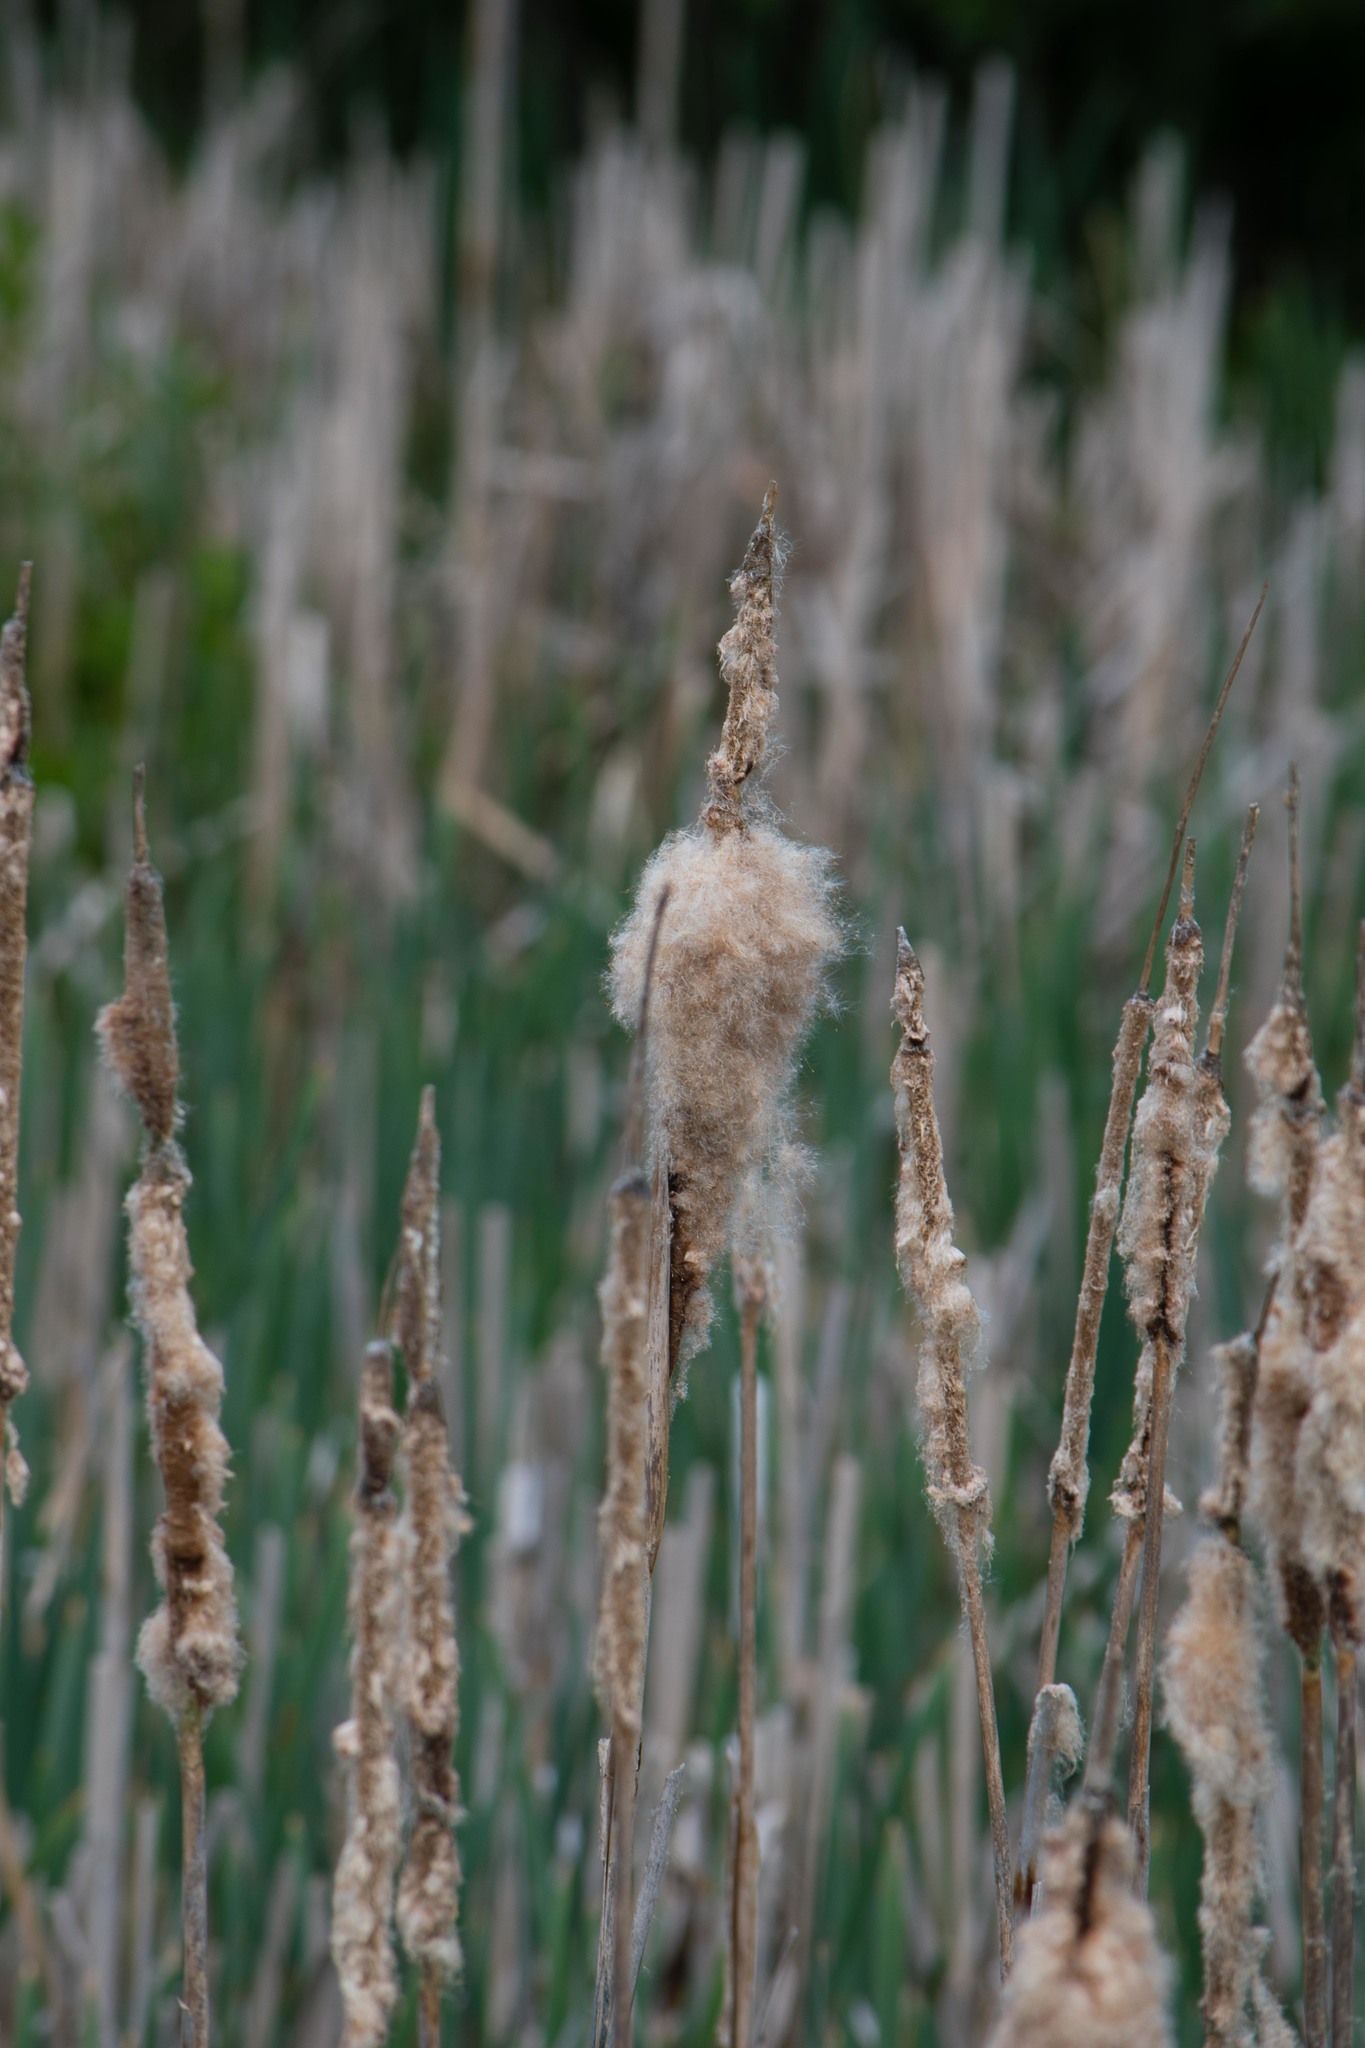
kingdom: Plantae
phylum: Tracheophyta
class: Liliopsida
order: Poales
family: Typhaceae
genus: Typha
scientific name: Typha latifolia
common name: Broadleaf cattail
